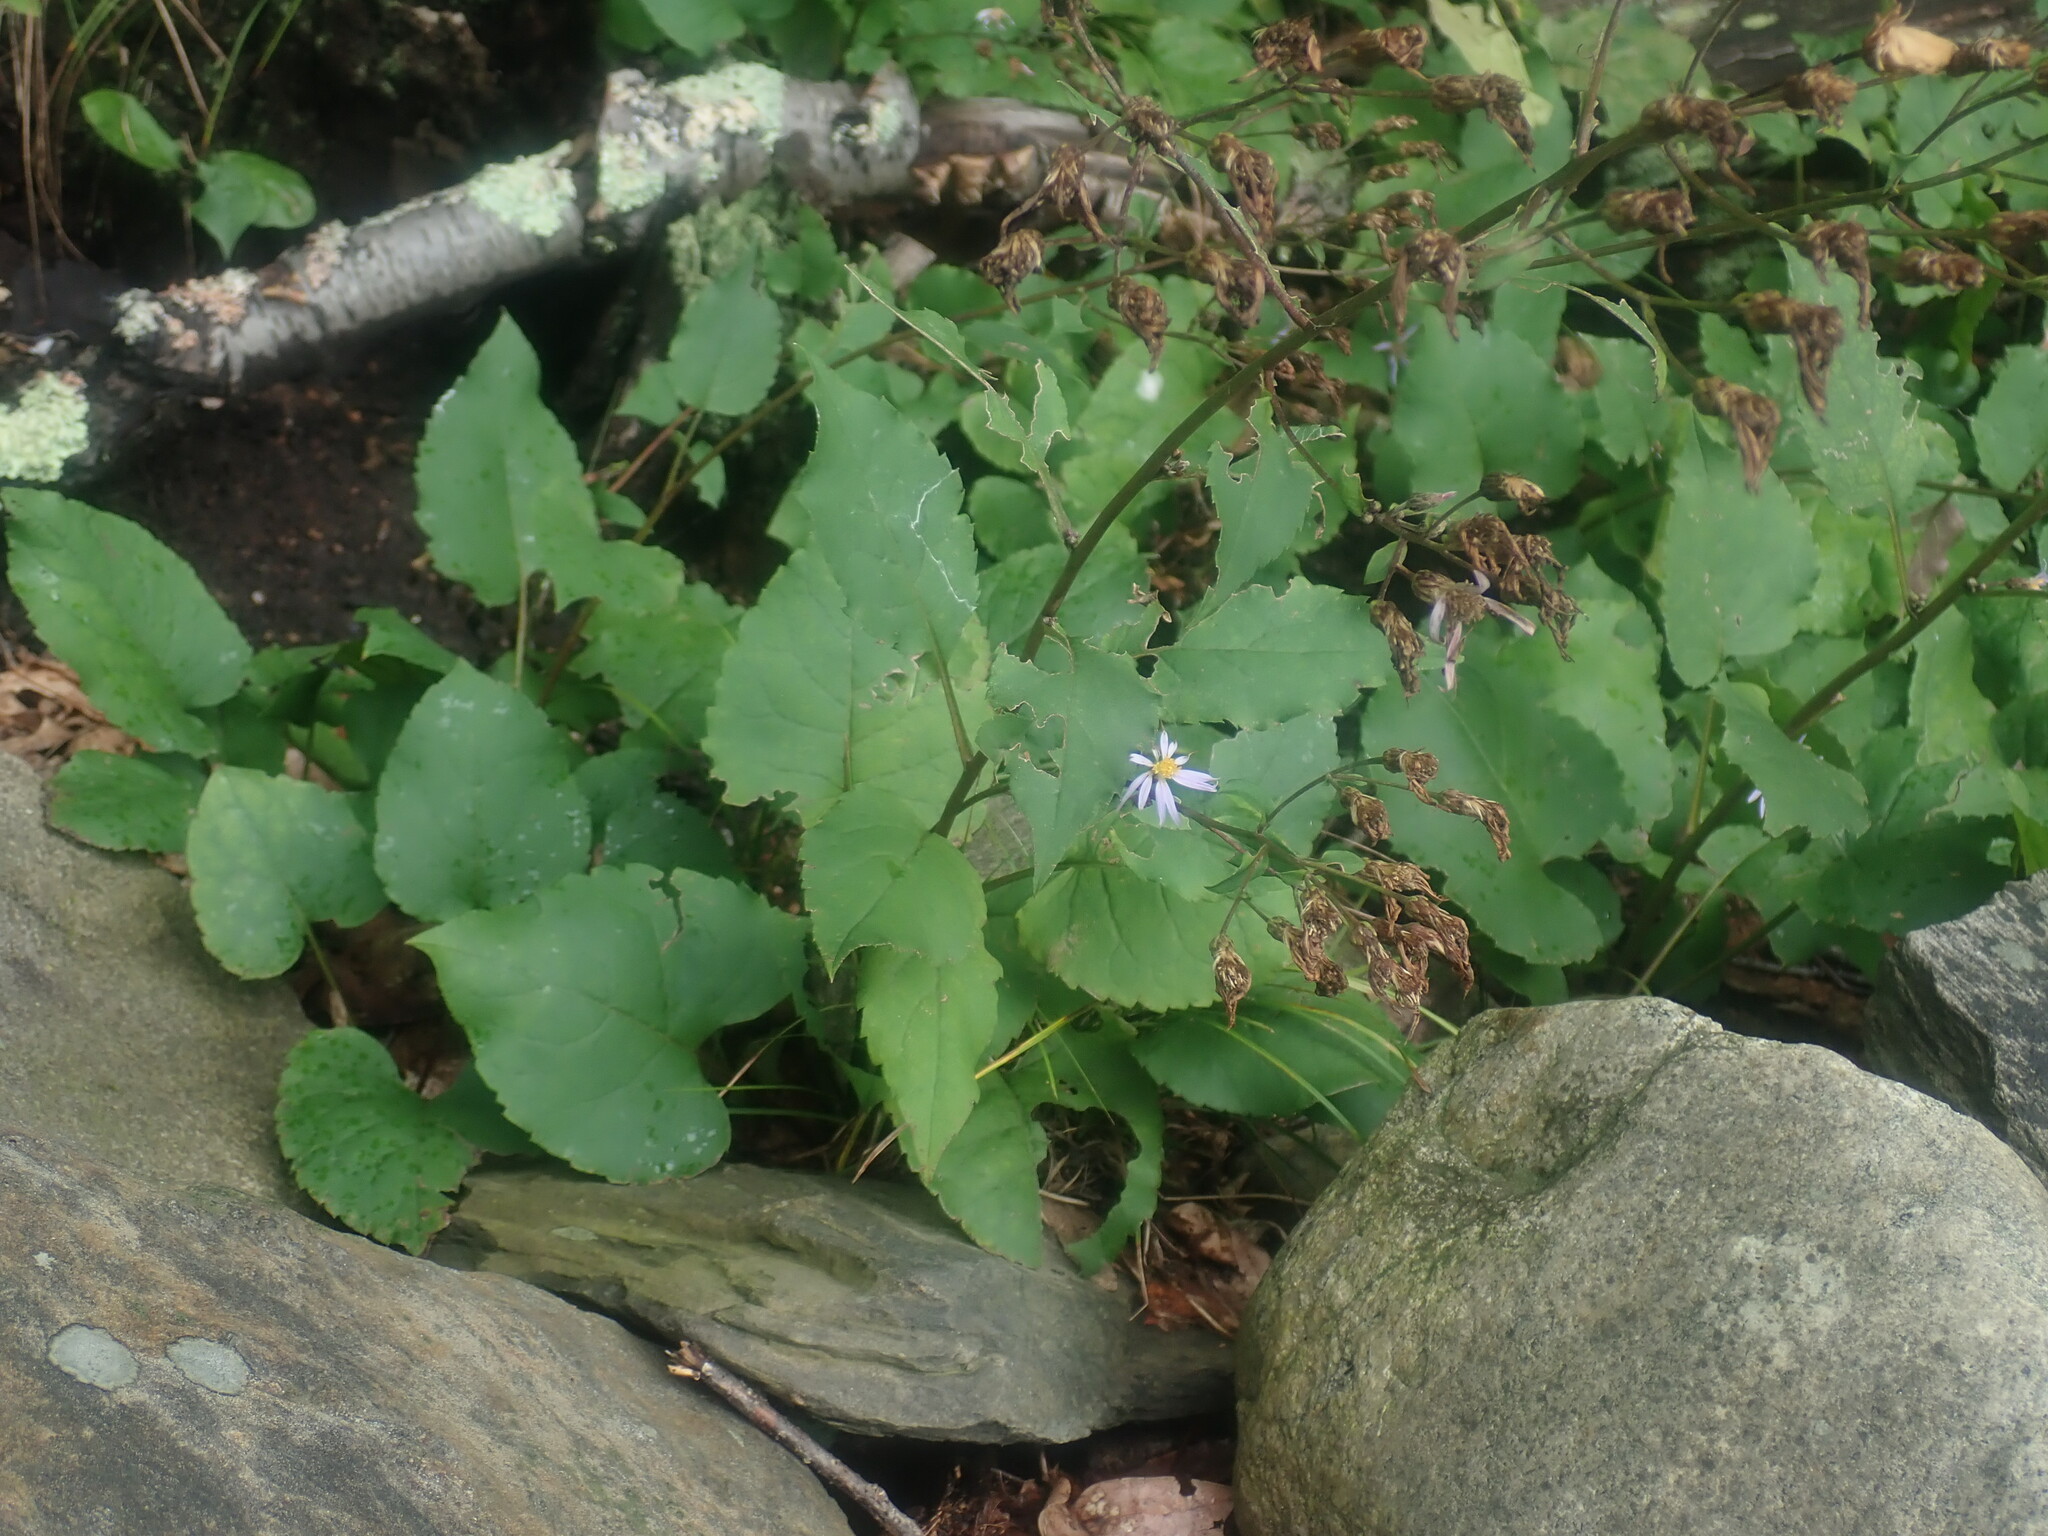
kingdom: Plantae
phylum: Tracheophyta
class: Magnoliopsida
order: Asterales
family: Asteraceae
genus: Eurybia
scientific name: Eurybia macrophylla
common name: Big-leaved aster
